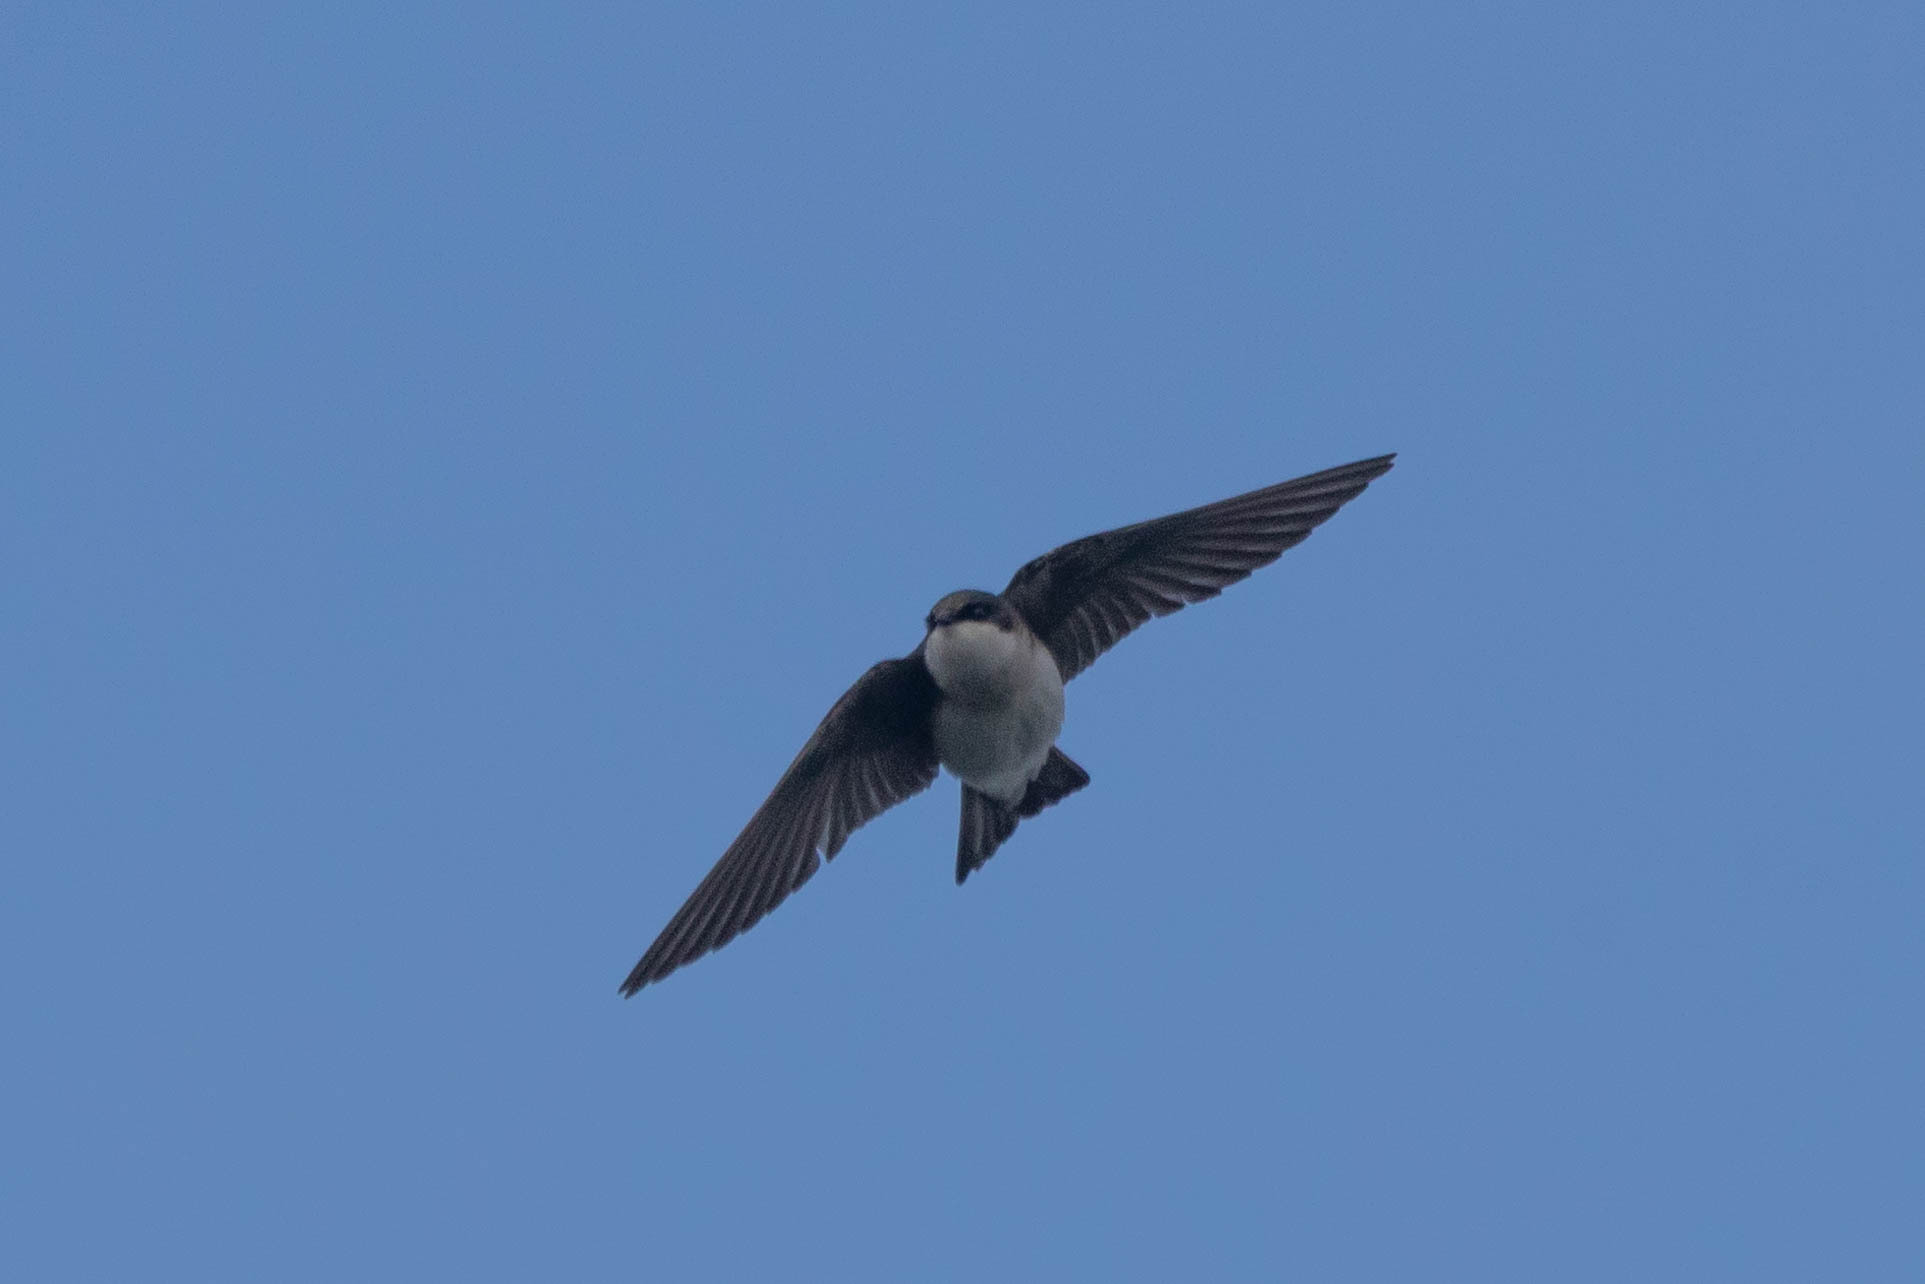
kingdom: Animalia
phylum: Chordata
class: Aves
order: Passeriformes
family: Hirundinidae
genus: Tachycineta
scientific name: Tachycineta bicolor
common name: Tree swallow
